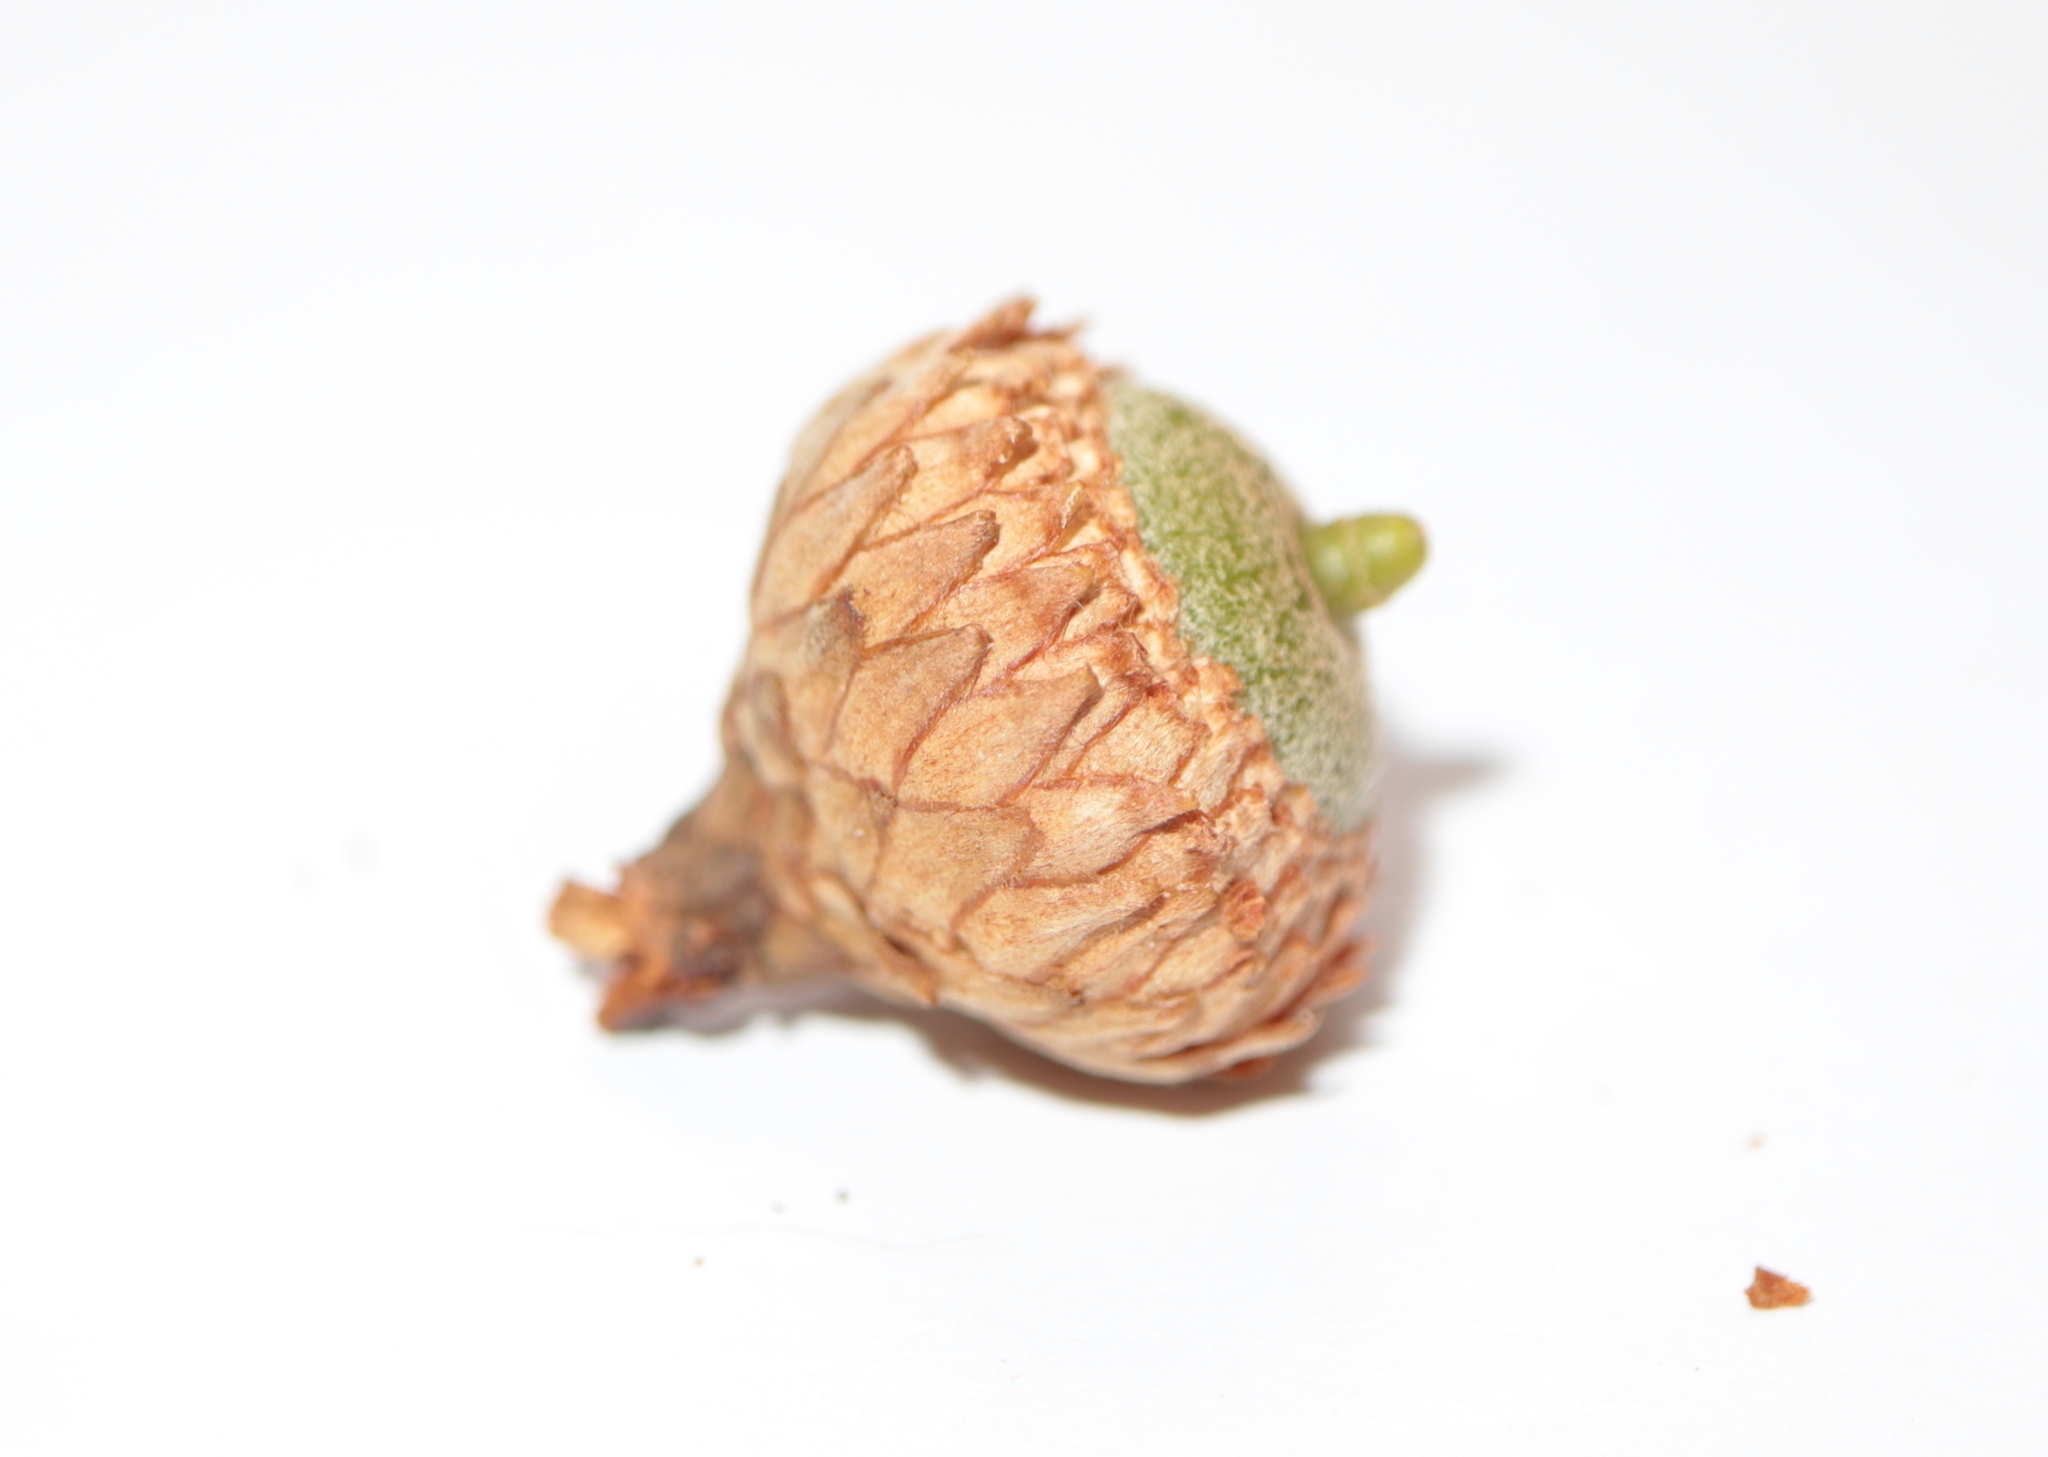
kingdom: Plantae
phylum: Tracheophyta
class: Magnoliopsida
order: Fagales
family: Fagaceae
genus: Quercus
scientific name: Quercus velutina
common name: Black oak
